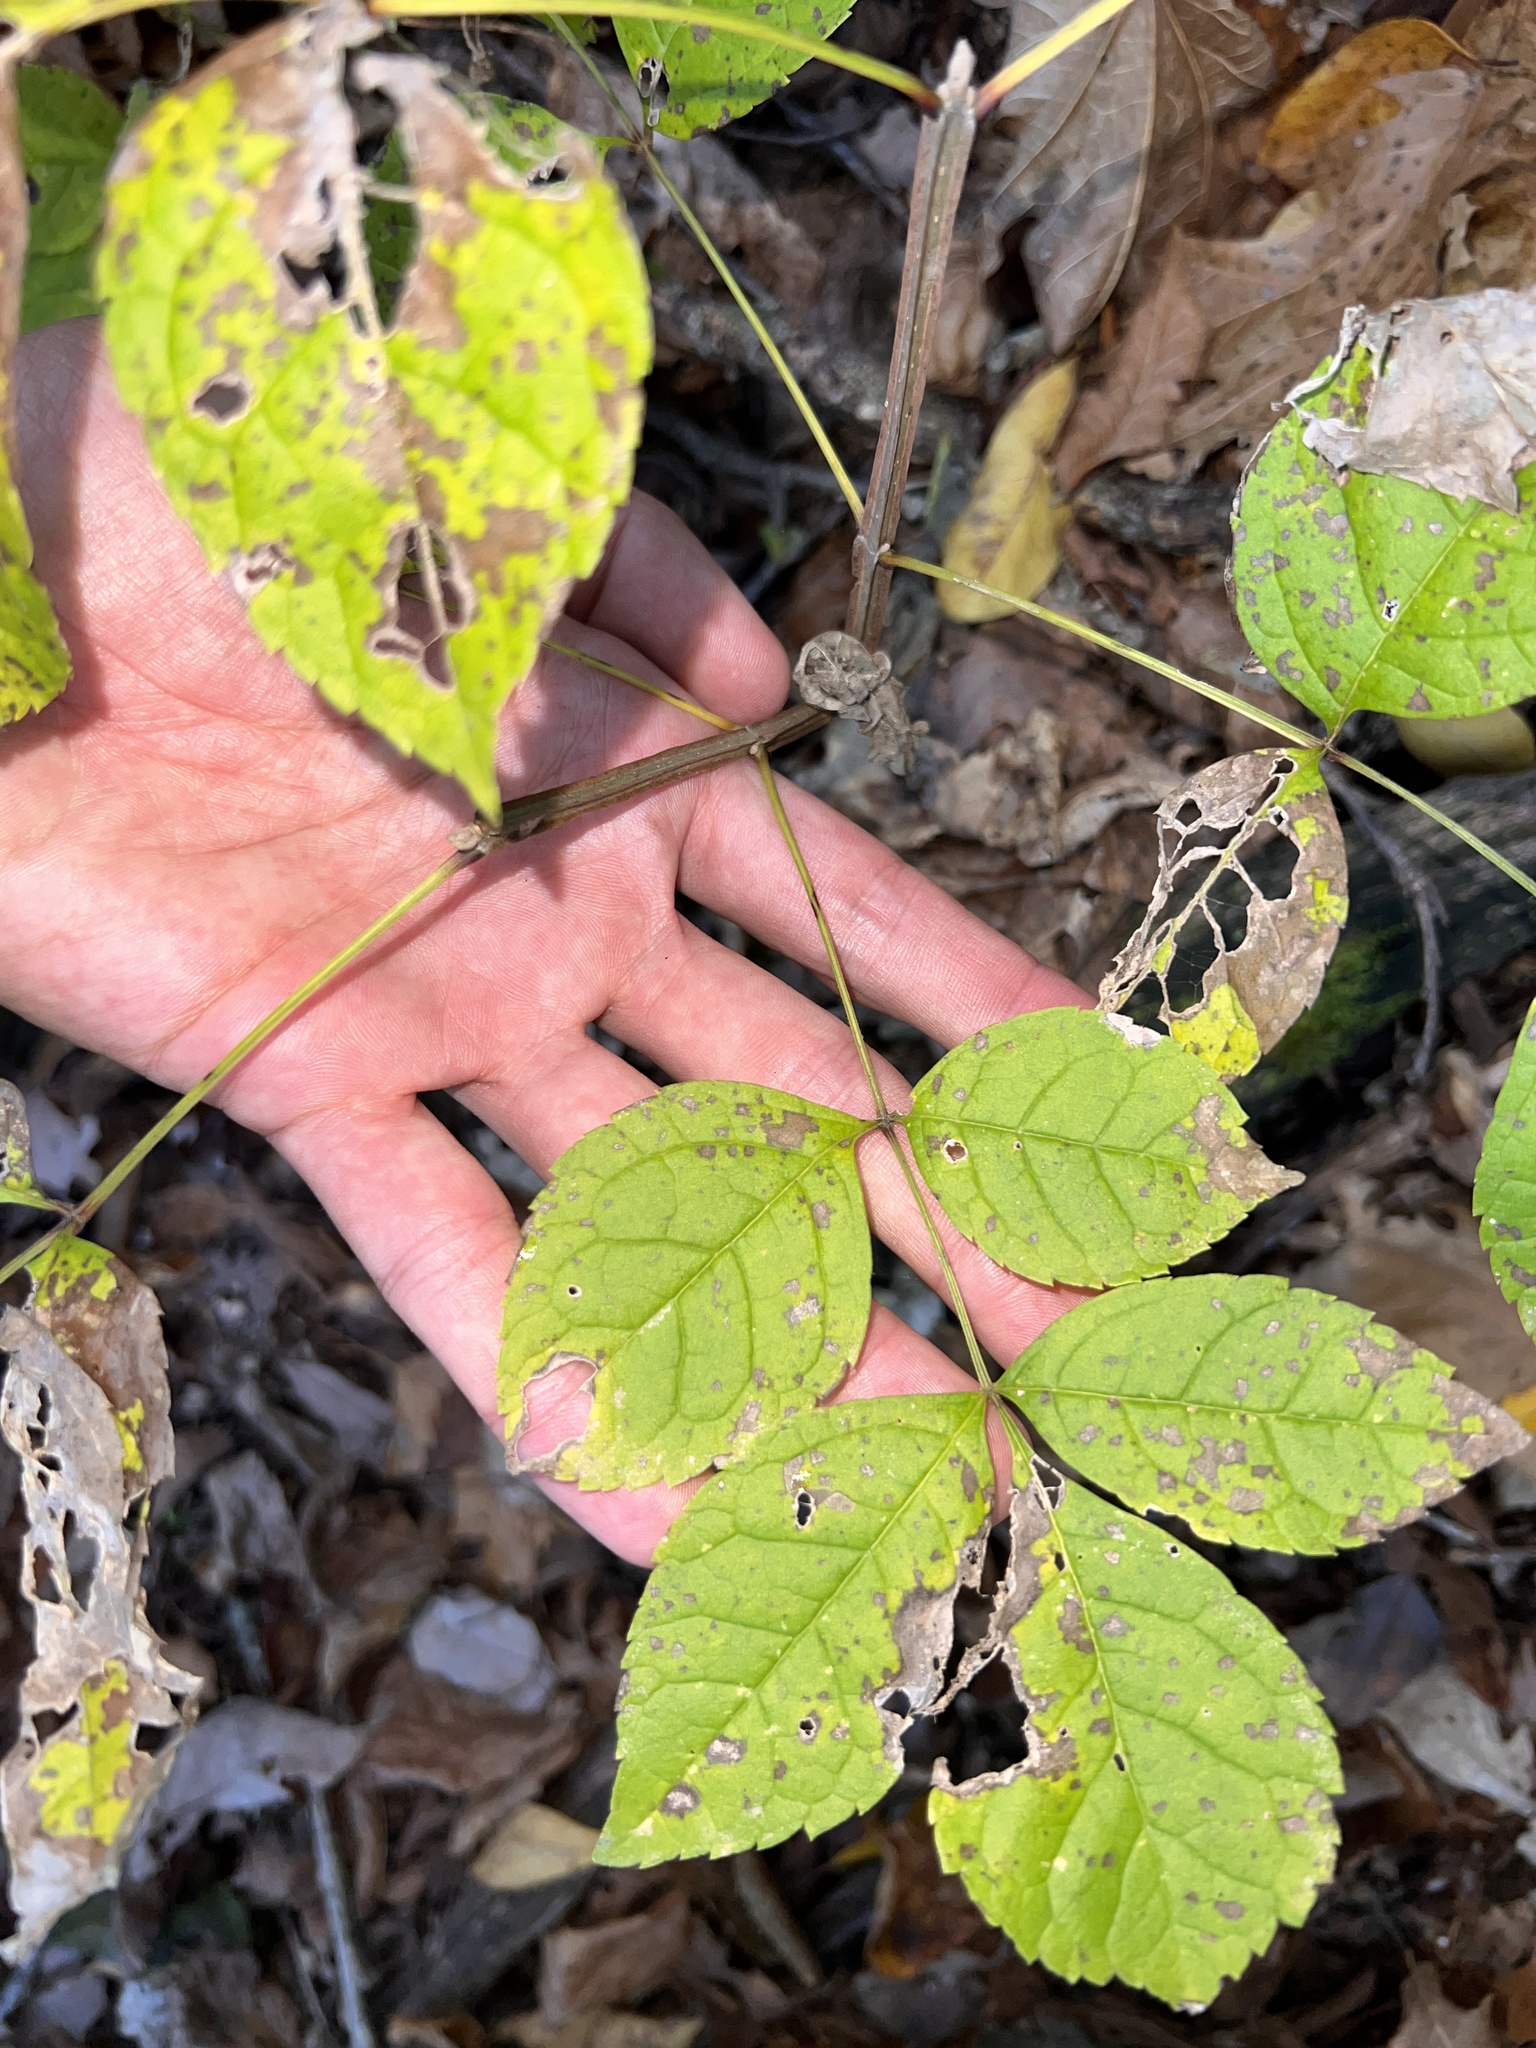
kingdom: Plantae
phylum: Tracheophyta
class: Magnoliopsida
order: Lamiales
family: Oleaceae
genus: Fraxinus
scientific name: Fraxinus quadrangulata
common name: Blue ash
